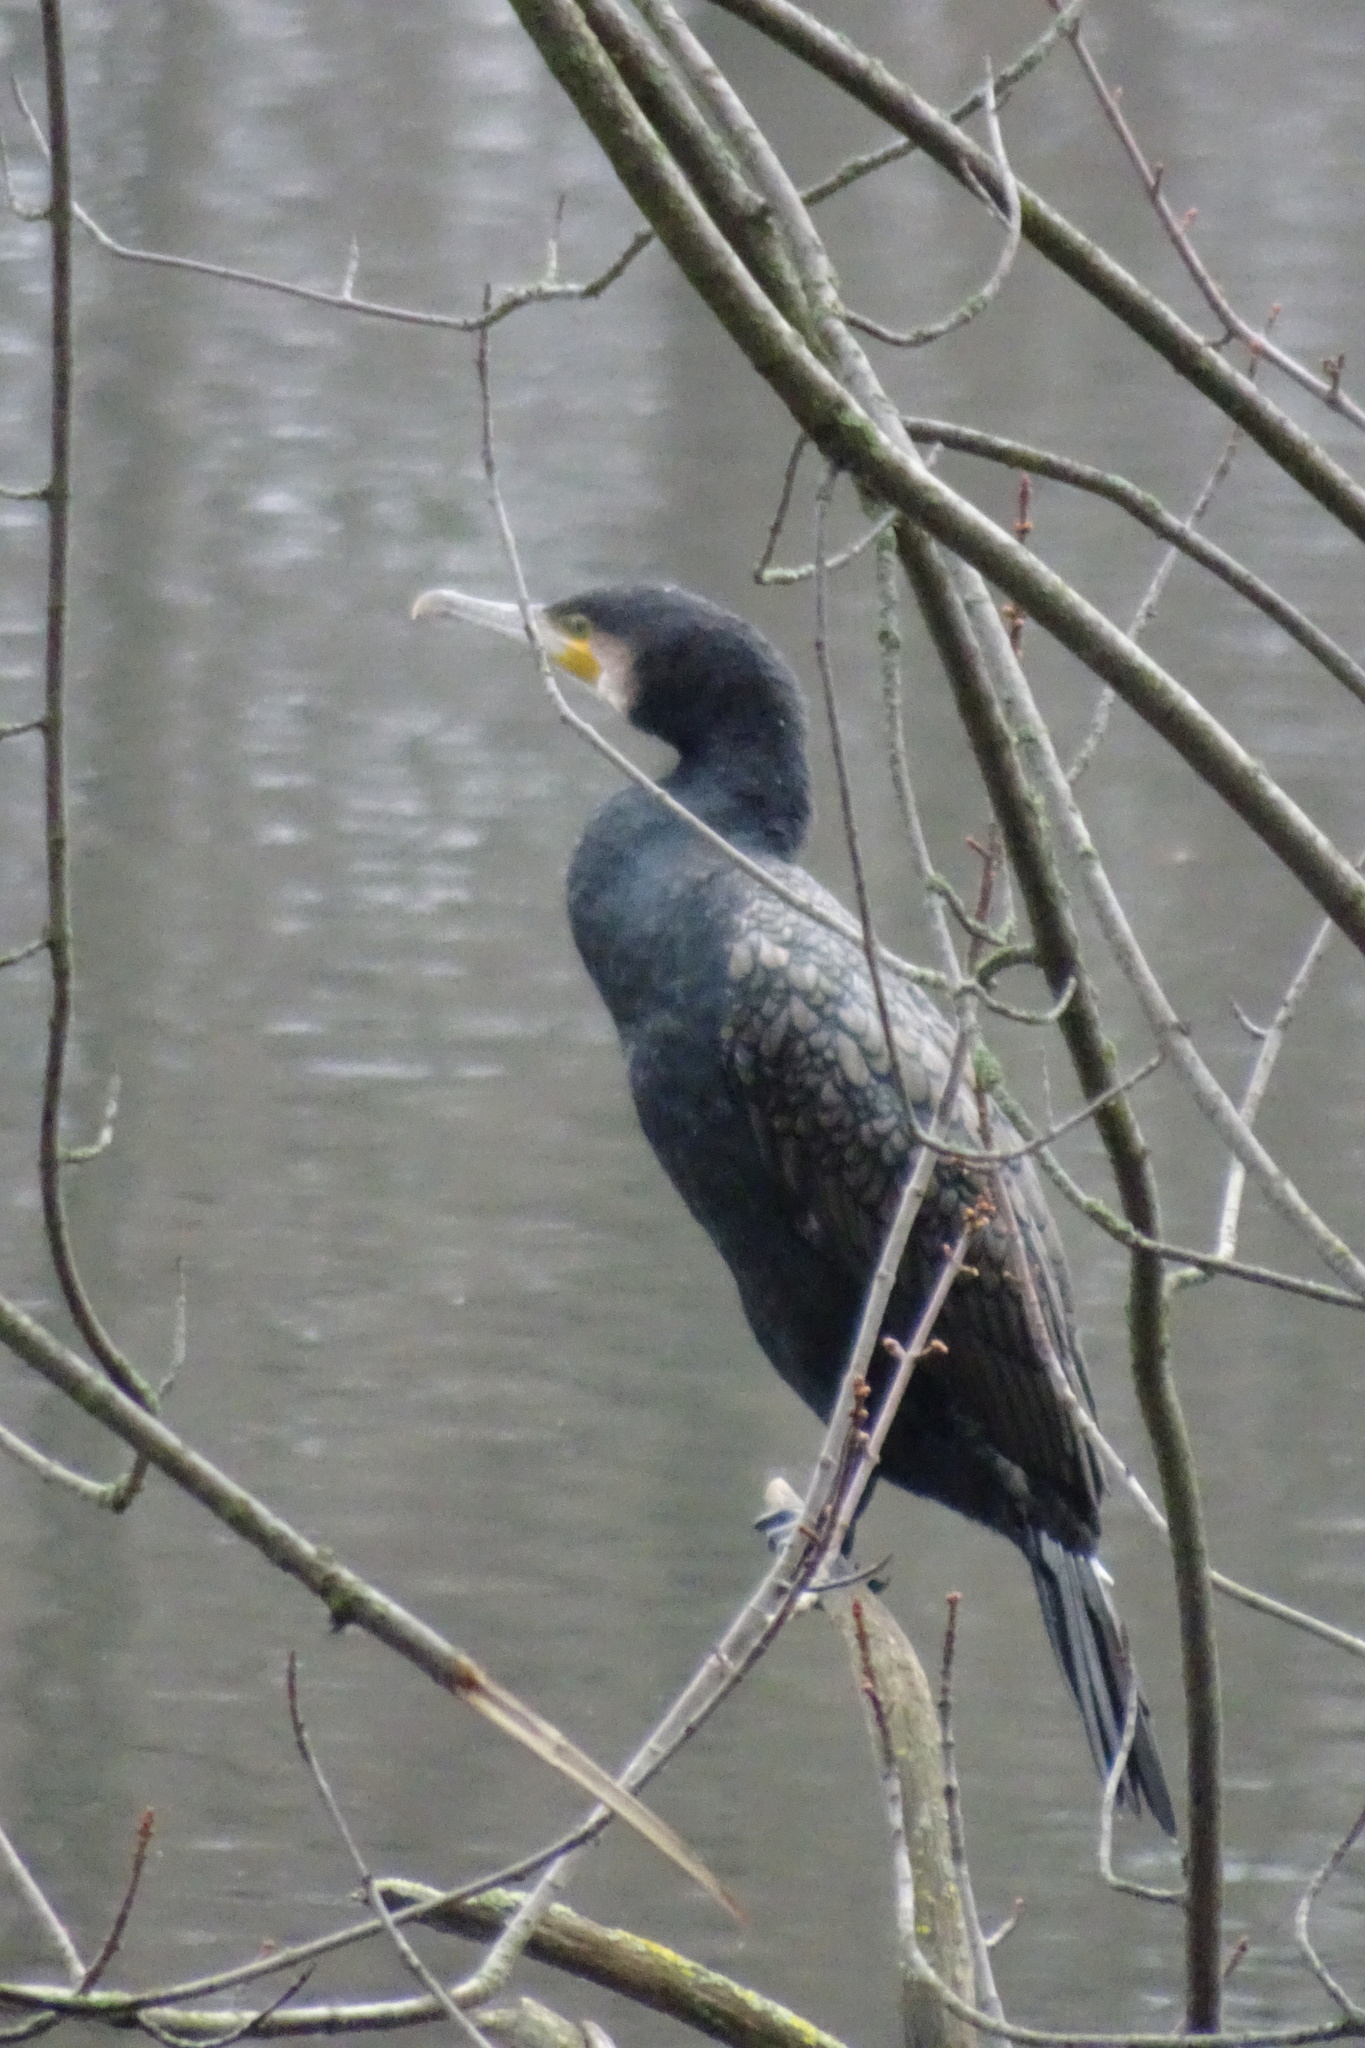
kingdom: Animalia
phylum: Chordata
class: Aves
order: Suliformes
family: Phalacrocoracidae
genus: Phalacrocorax
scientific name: Phalacrocorax carbo
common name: Great cormorant
